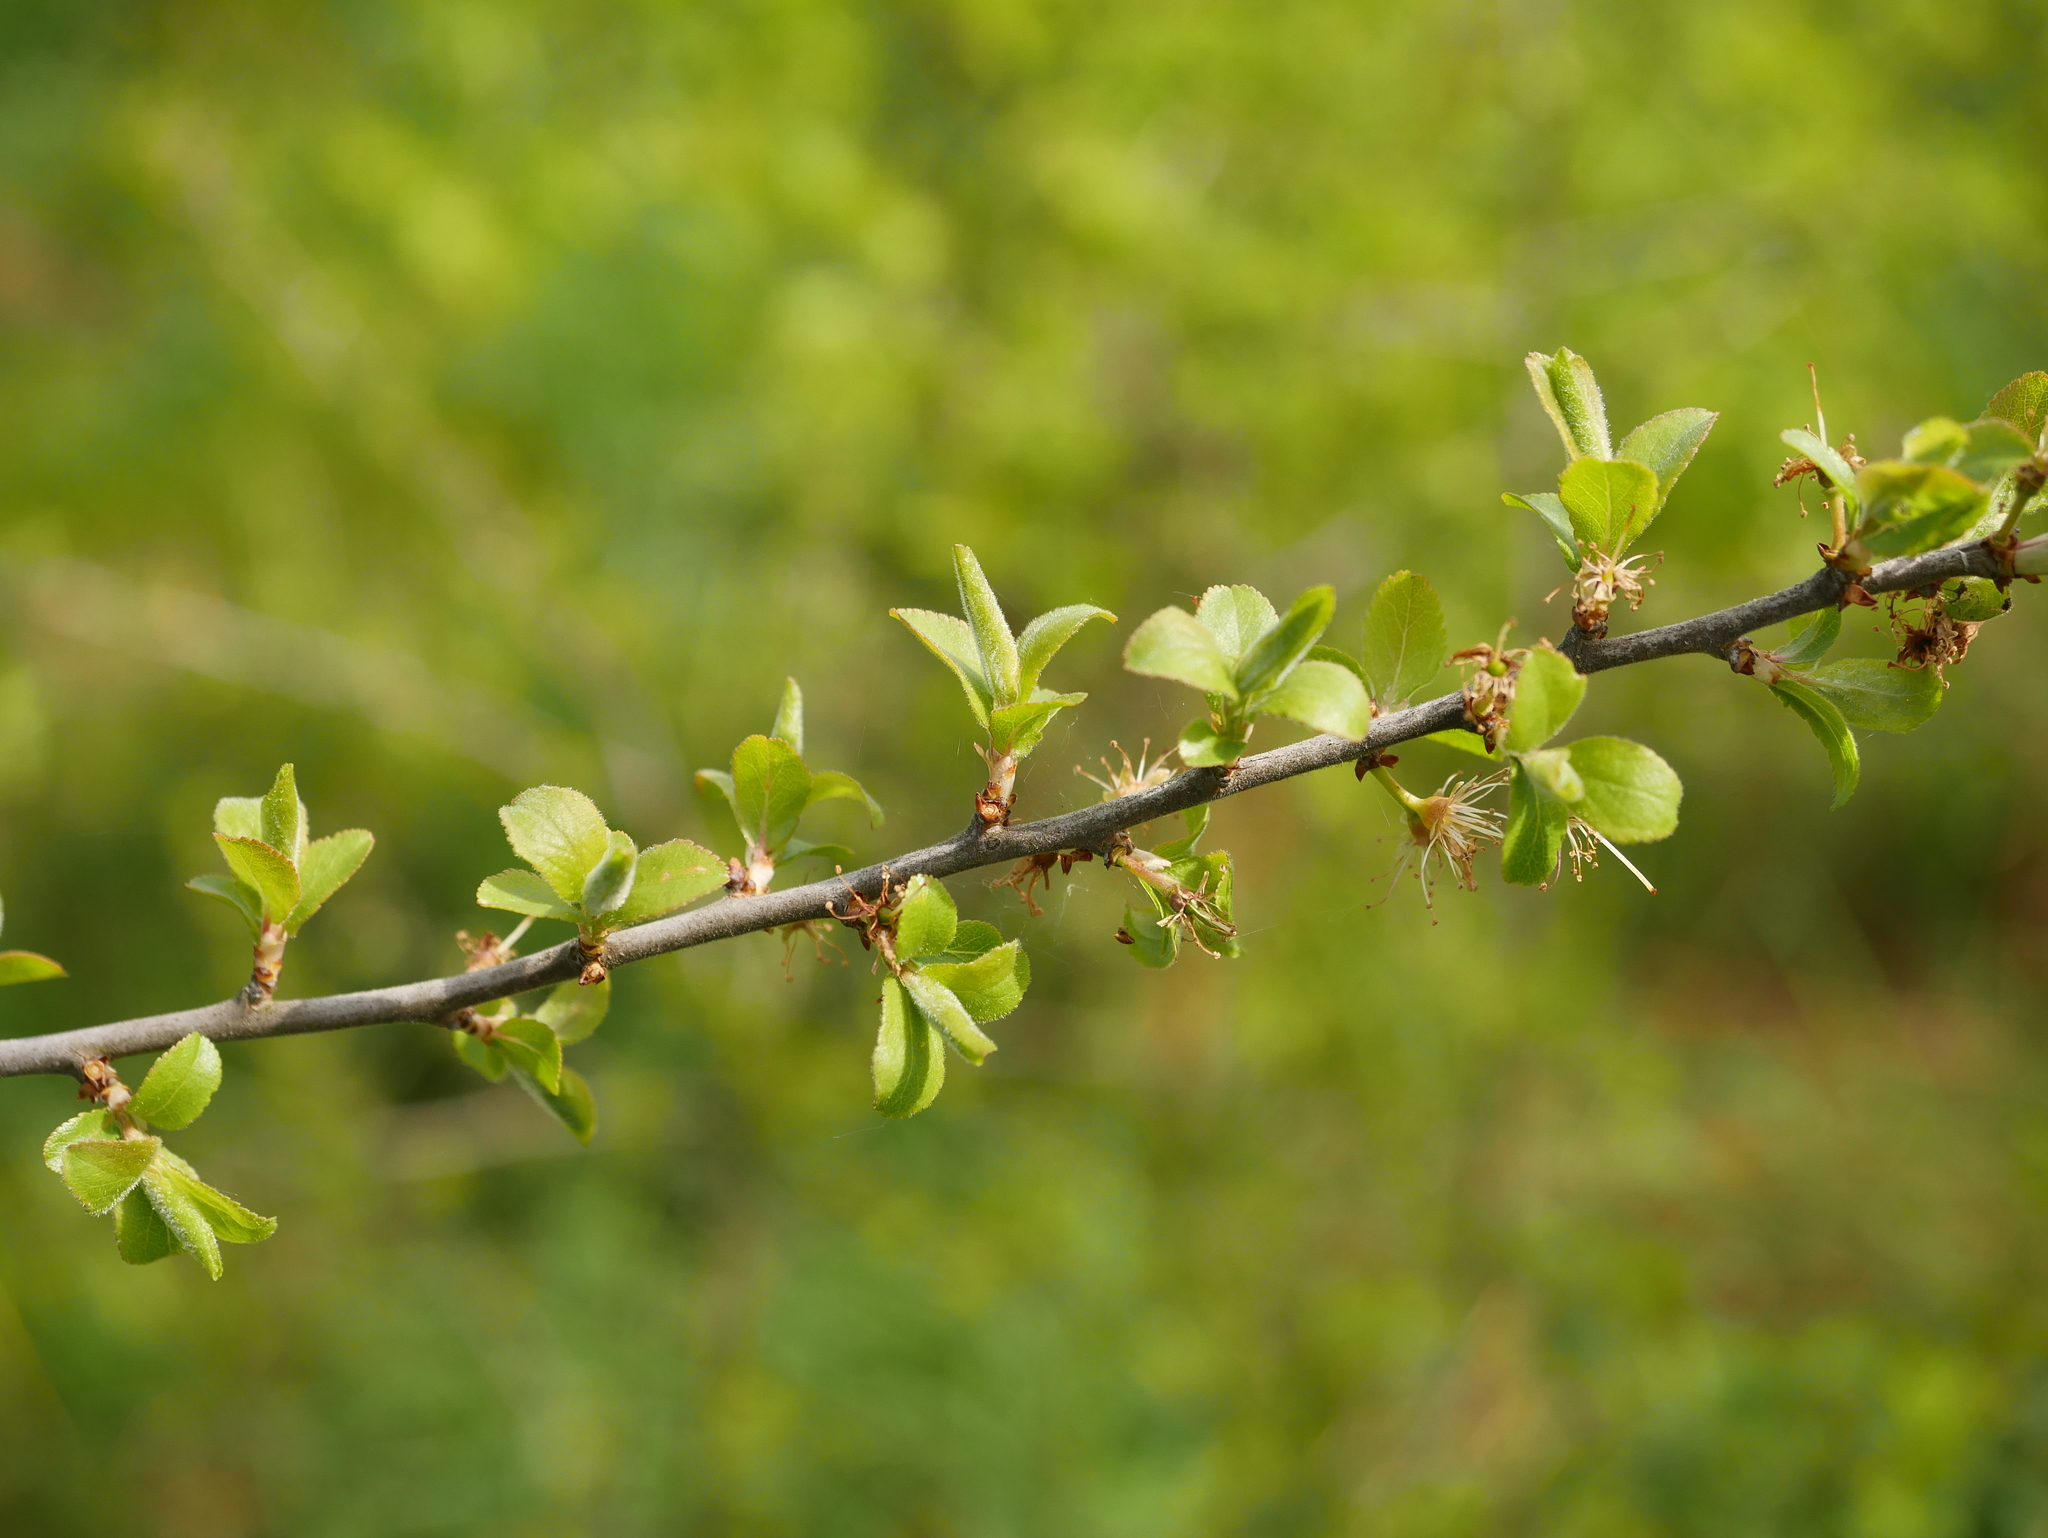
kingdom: Plantae
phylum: Tracheophyta
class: Magnoliopsida
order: Rosales
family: Rosaceae
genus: Prunus
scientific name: Prunus spinosa
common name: Blackthorn
